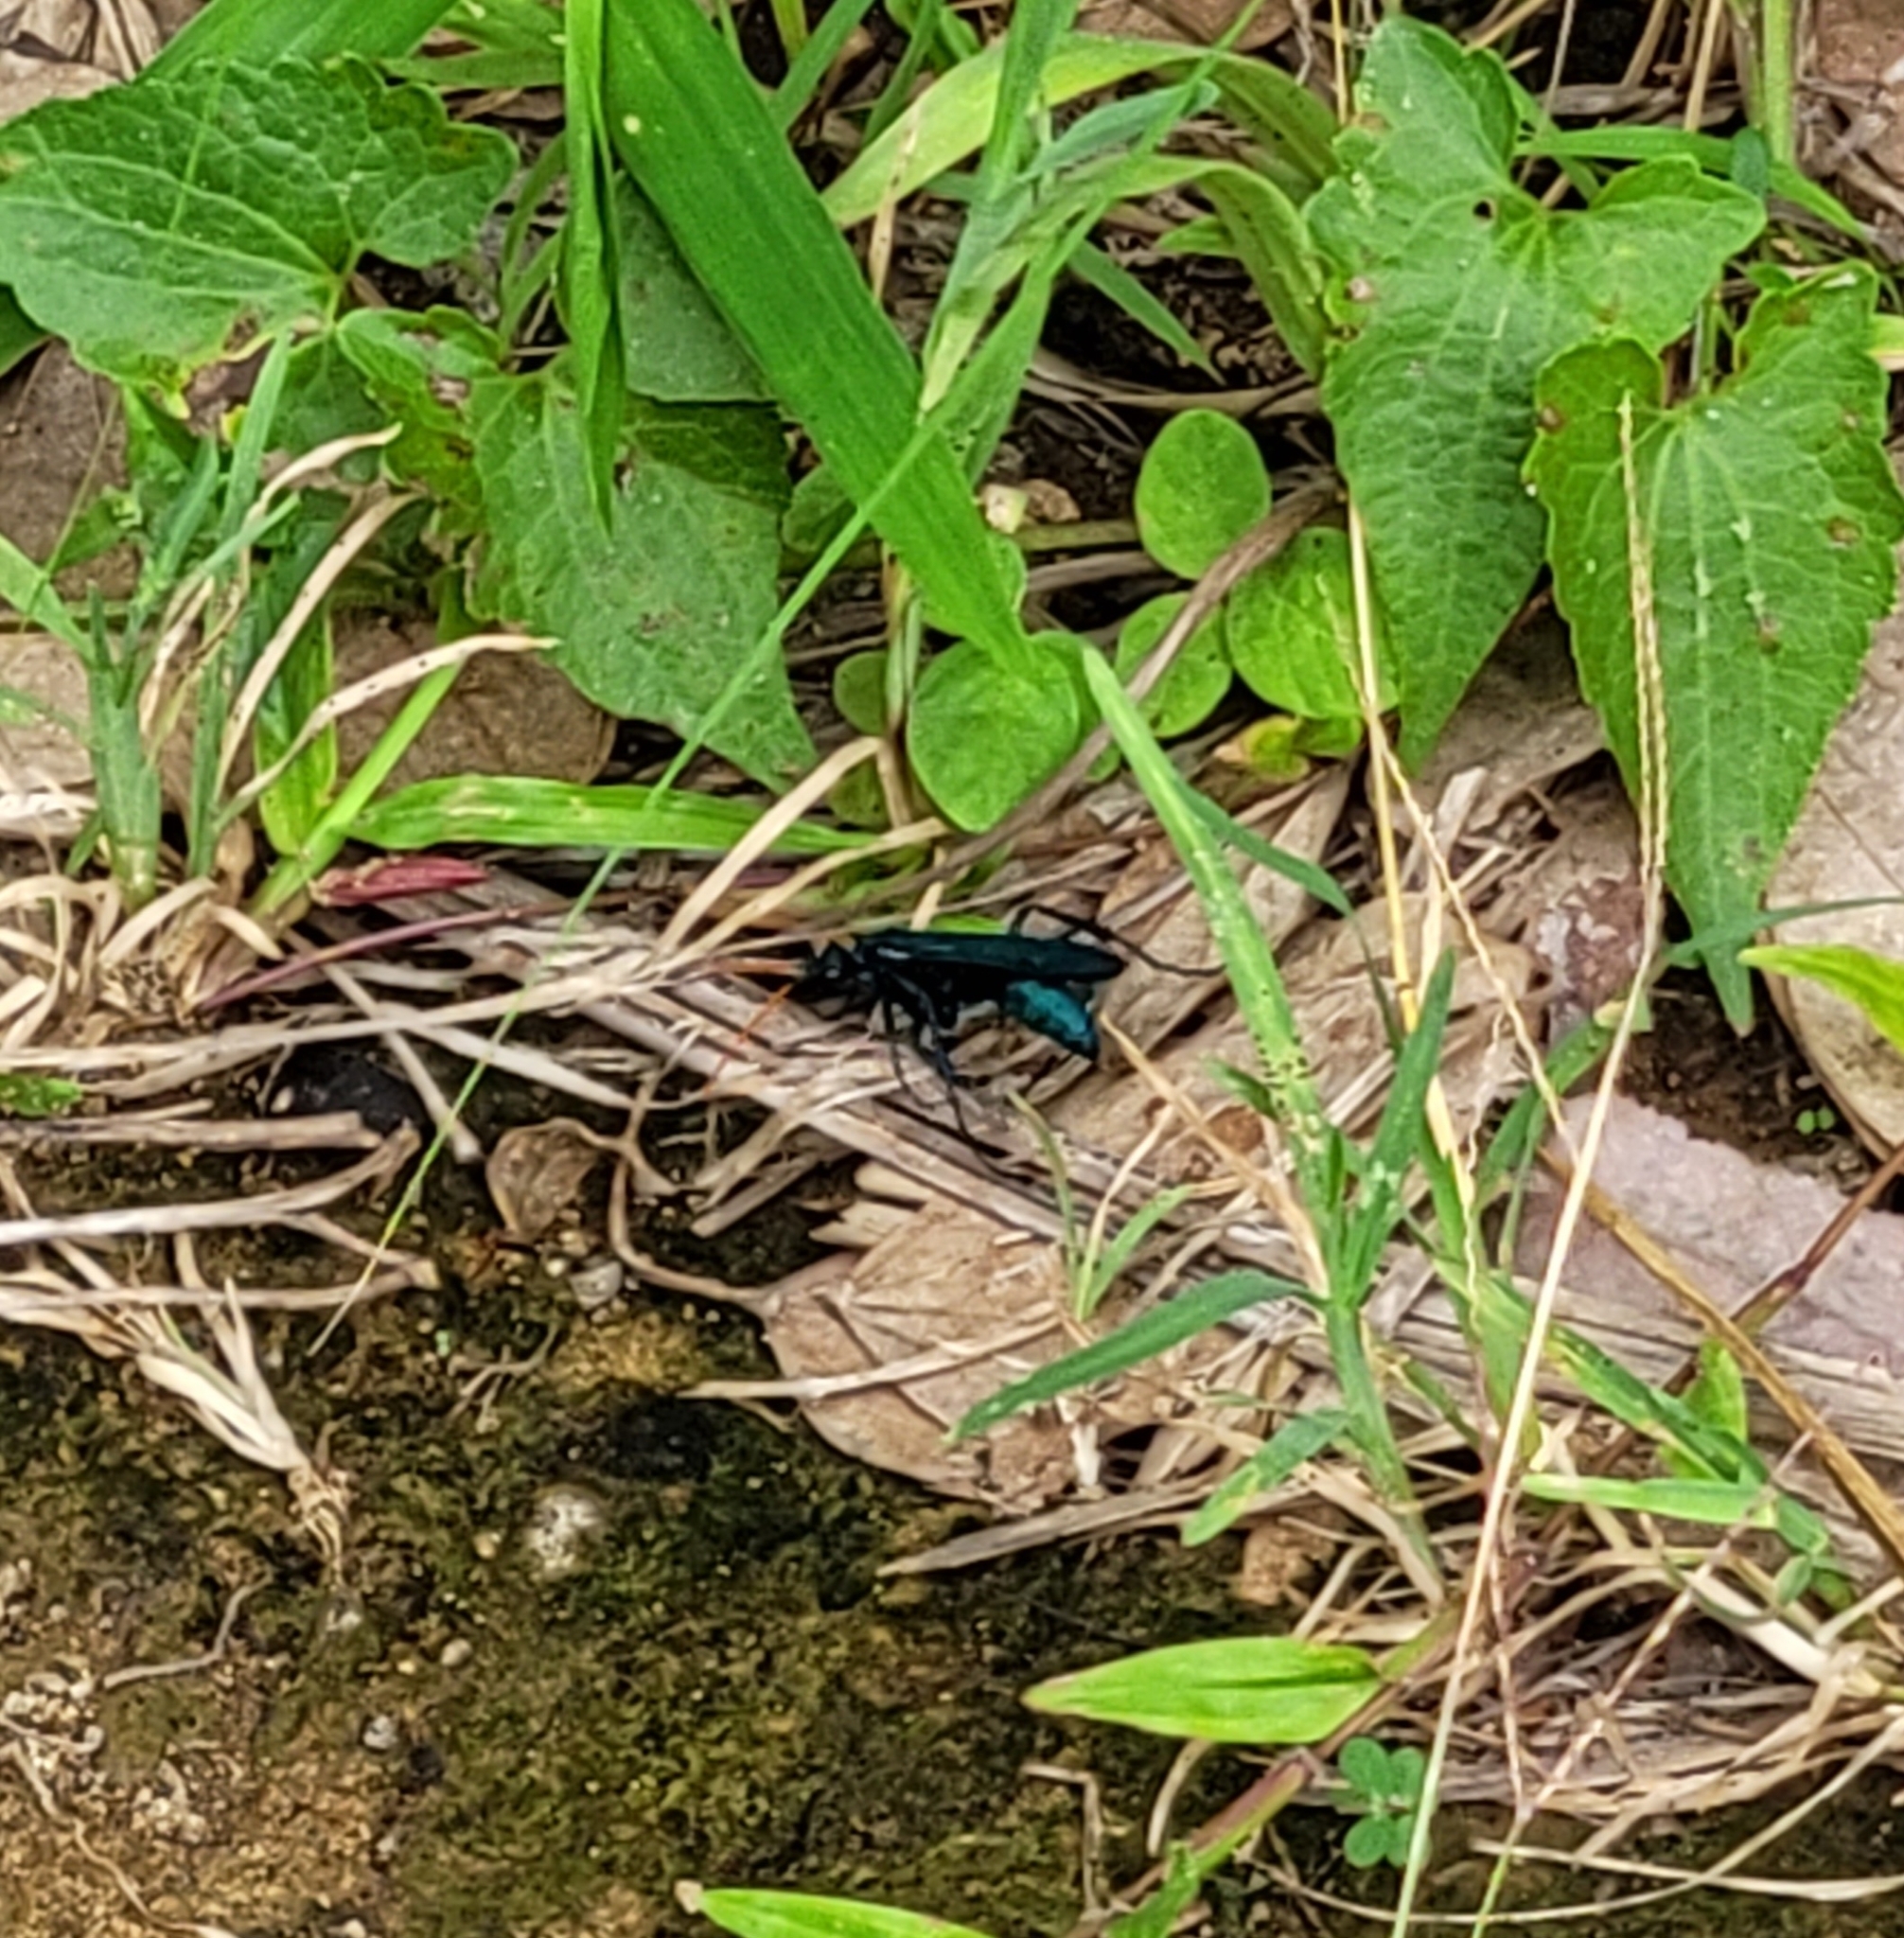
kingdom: Animalia
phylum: Arthropoda
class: Insecta
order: Hymenoptera
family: Pompilidae
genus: Pepsis
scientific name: Pepsis ruficornis
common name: Orange-horned tarantula hawk
